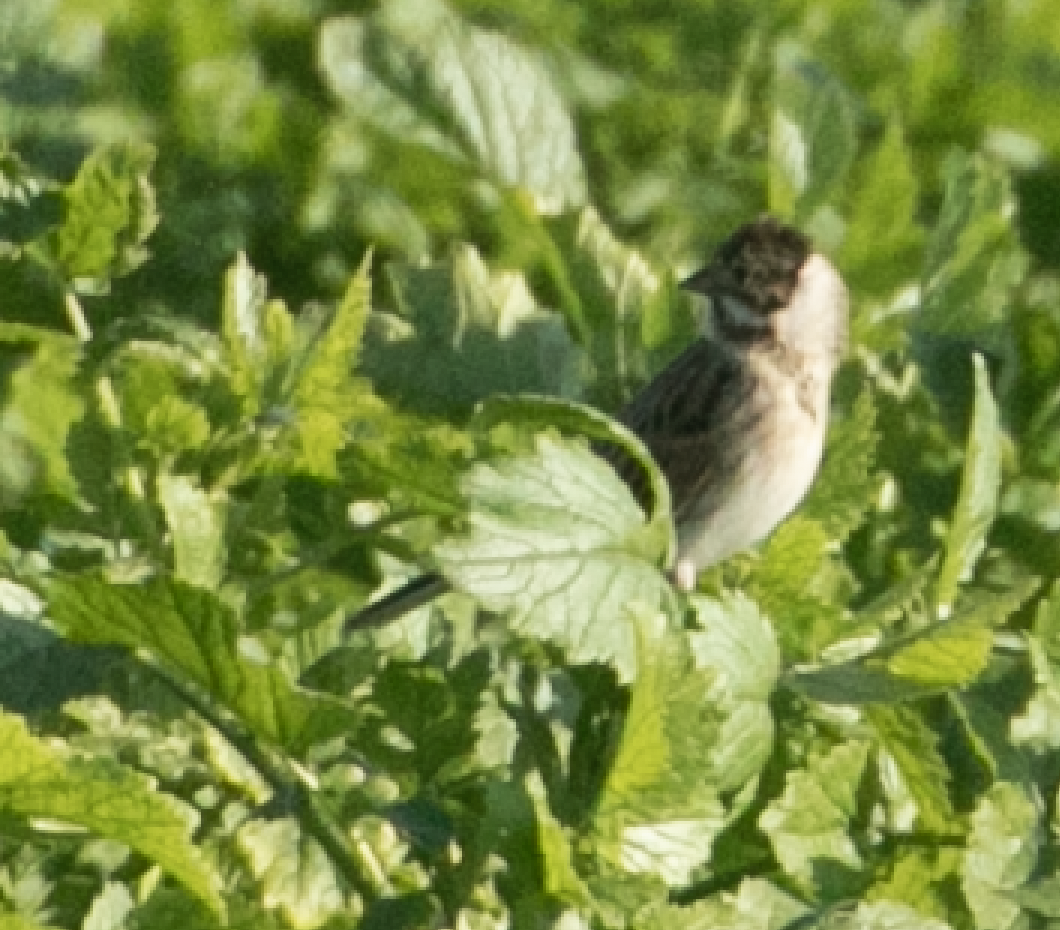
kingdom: Animalia
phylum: Chordata
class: Aves
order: Passeriformes
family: Emberizidae
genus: Emberiza
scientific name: Emberiza schoeniclus
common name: Reed bunting
